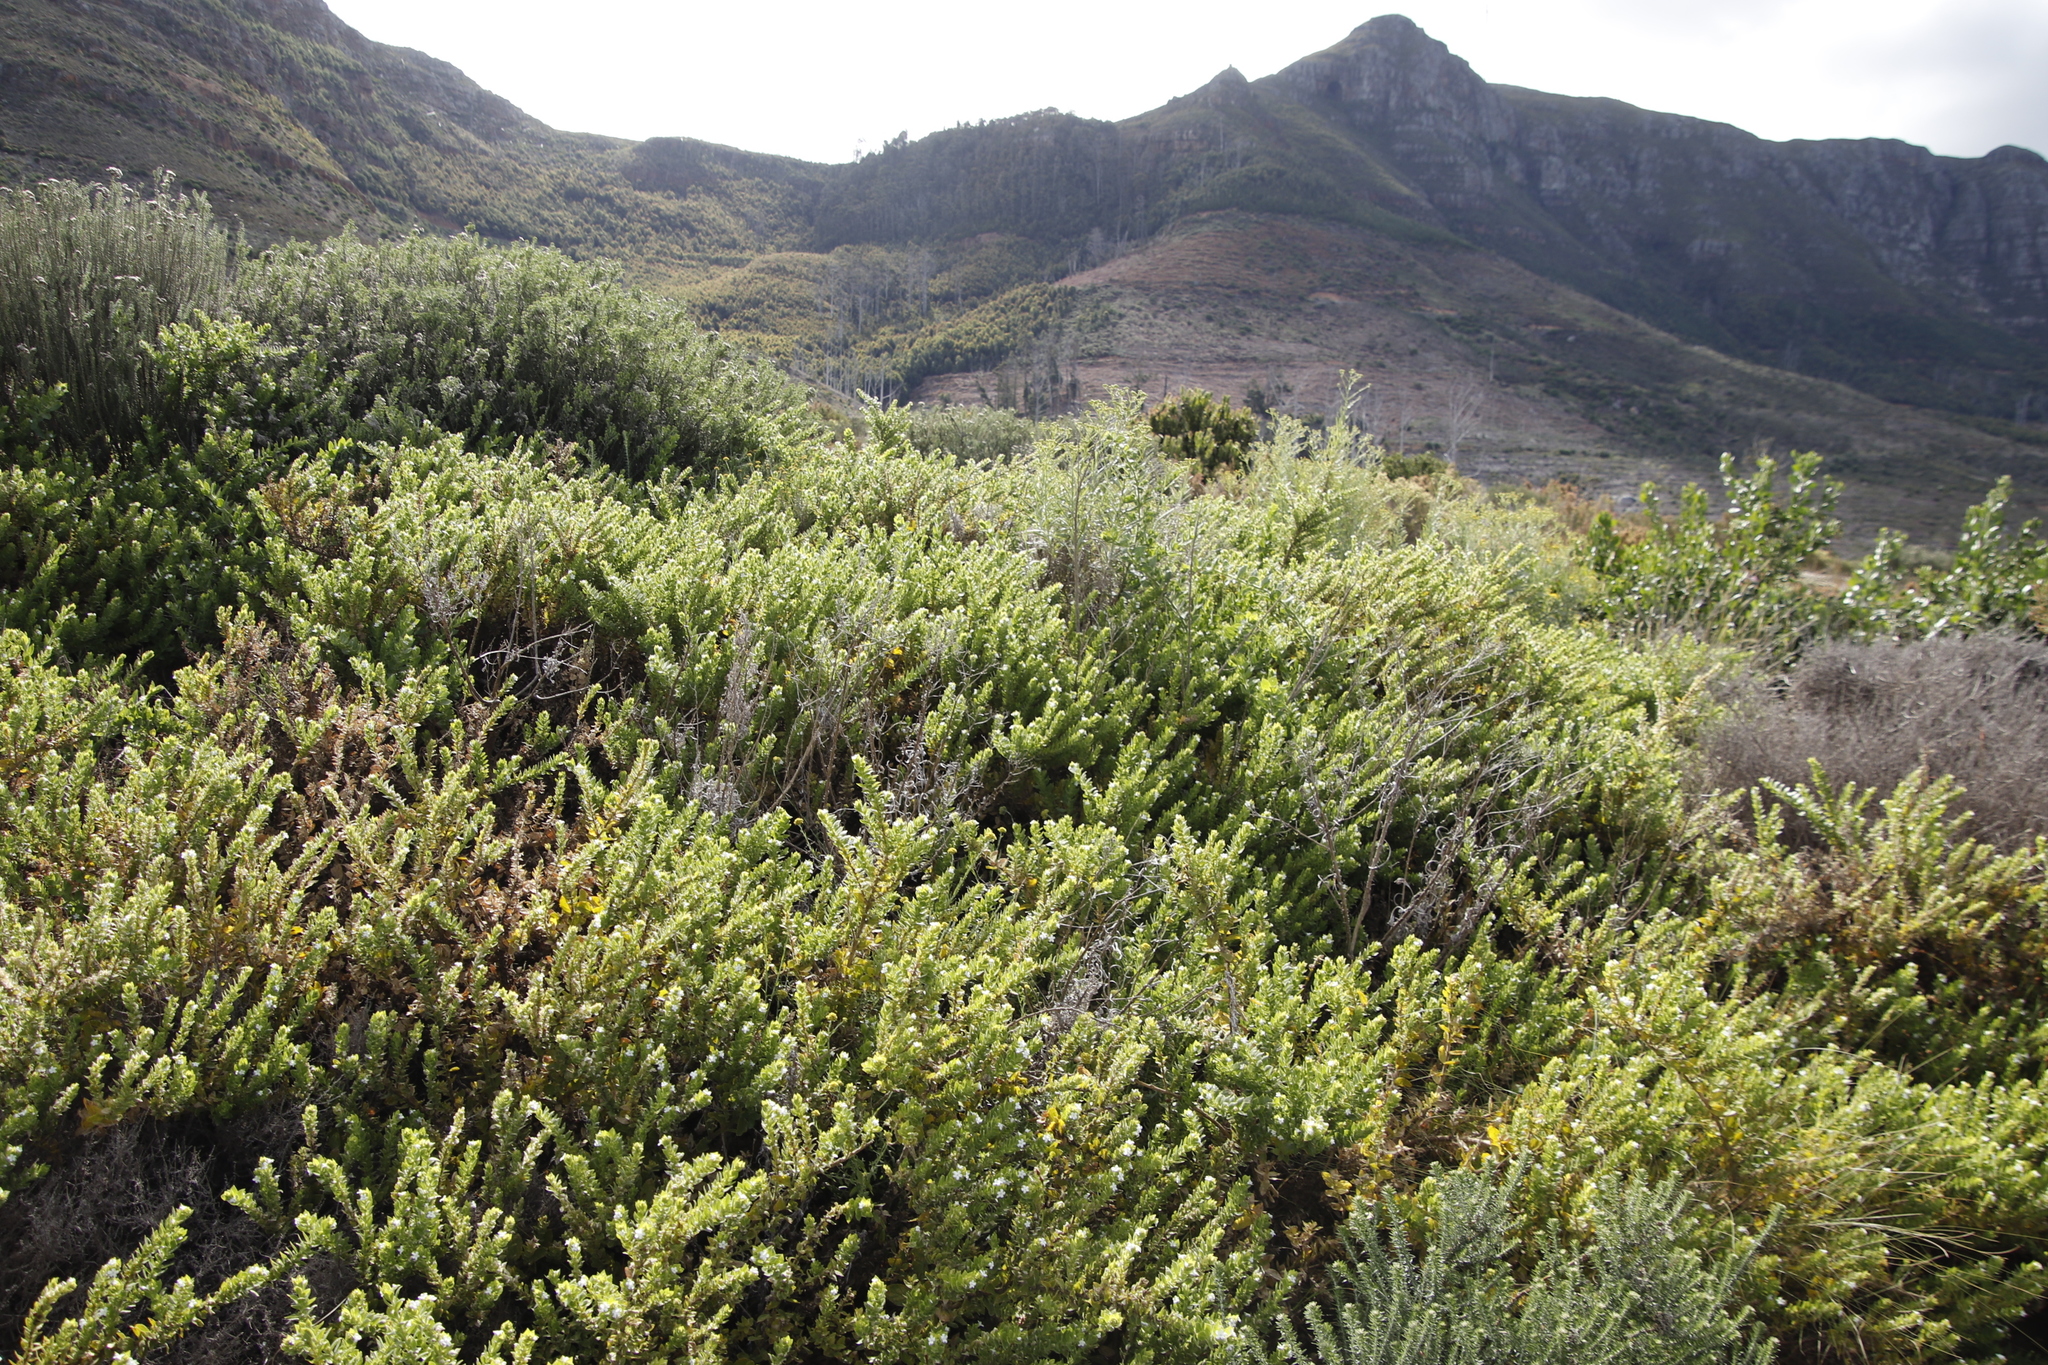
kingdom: Plantae
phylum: Tracheophyta
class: Magnoliopsida
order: Lamiales
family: Scrophulariaceae
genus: Oftia
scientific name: Oftia africana
